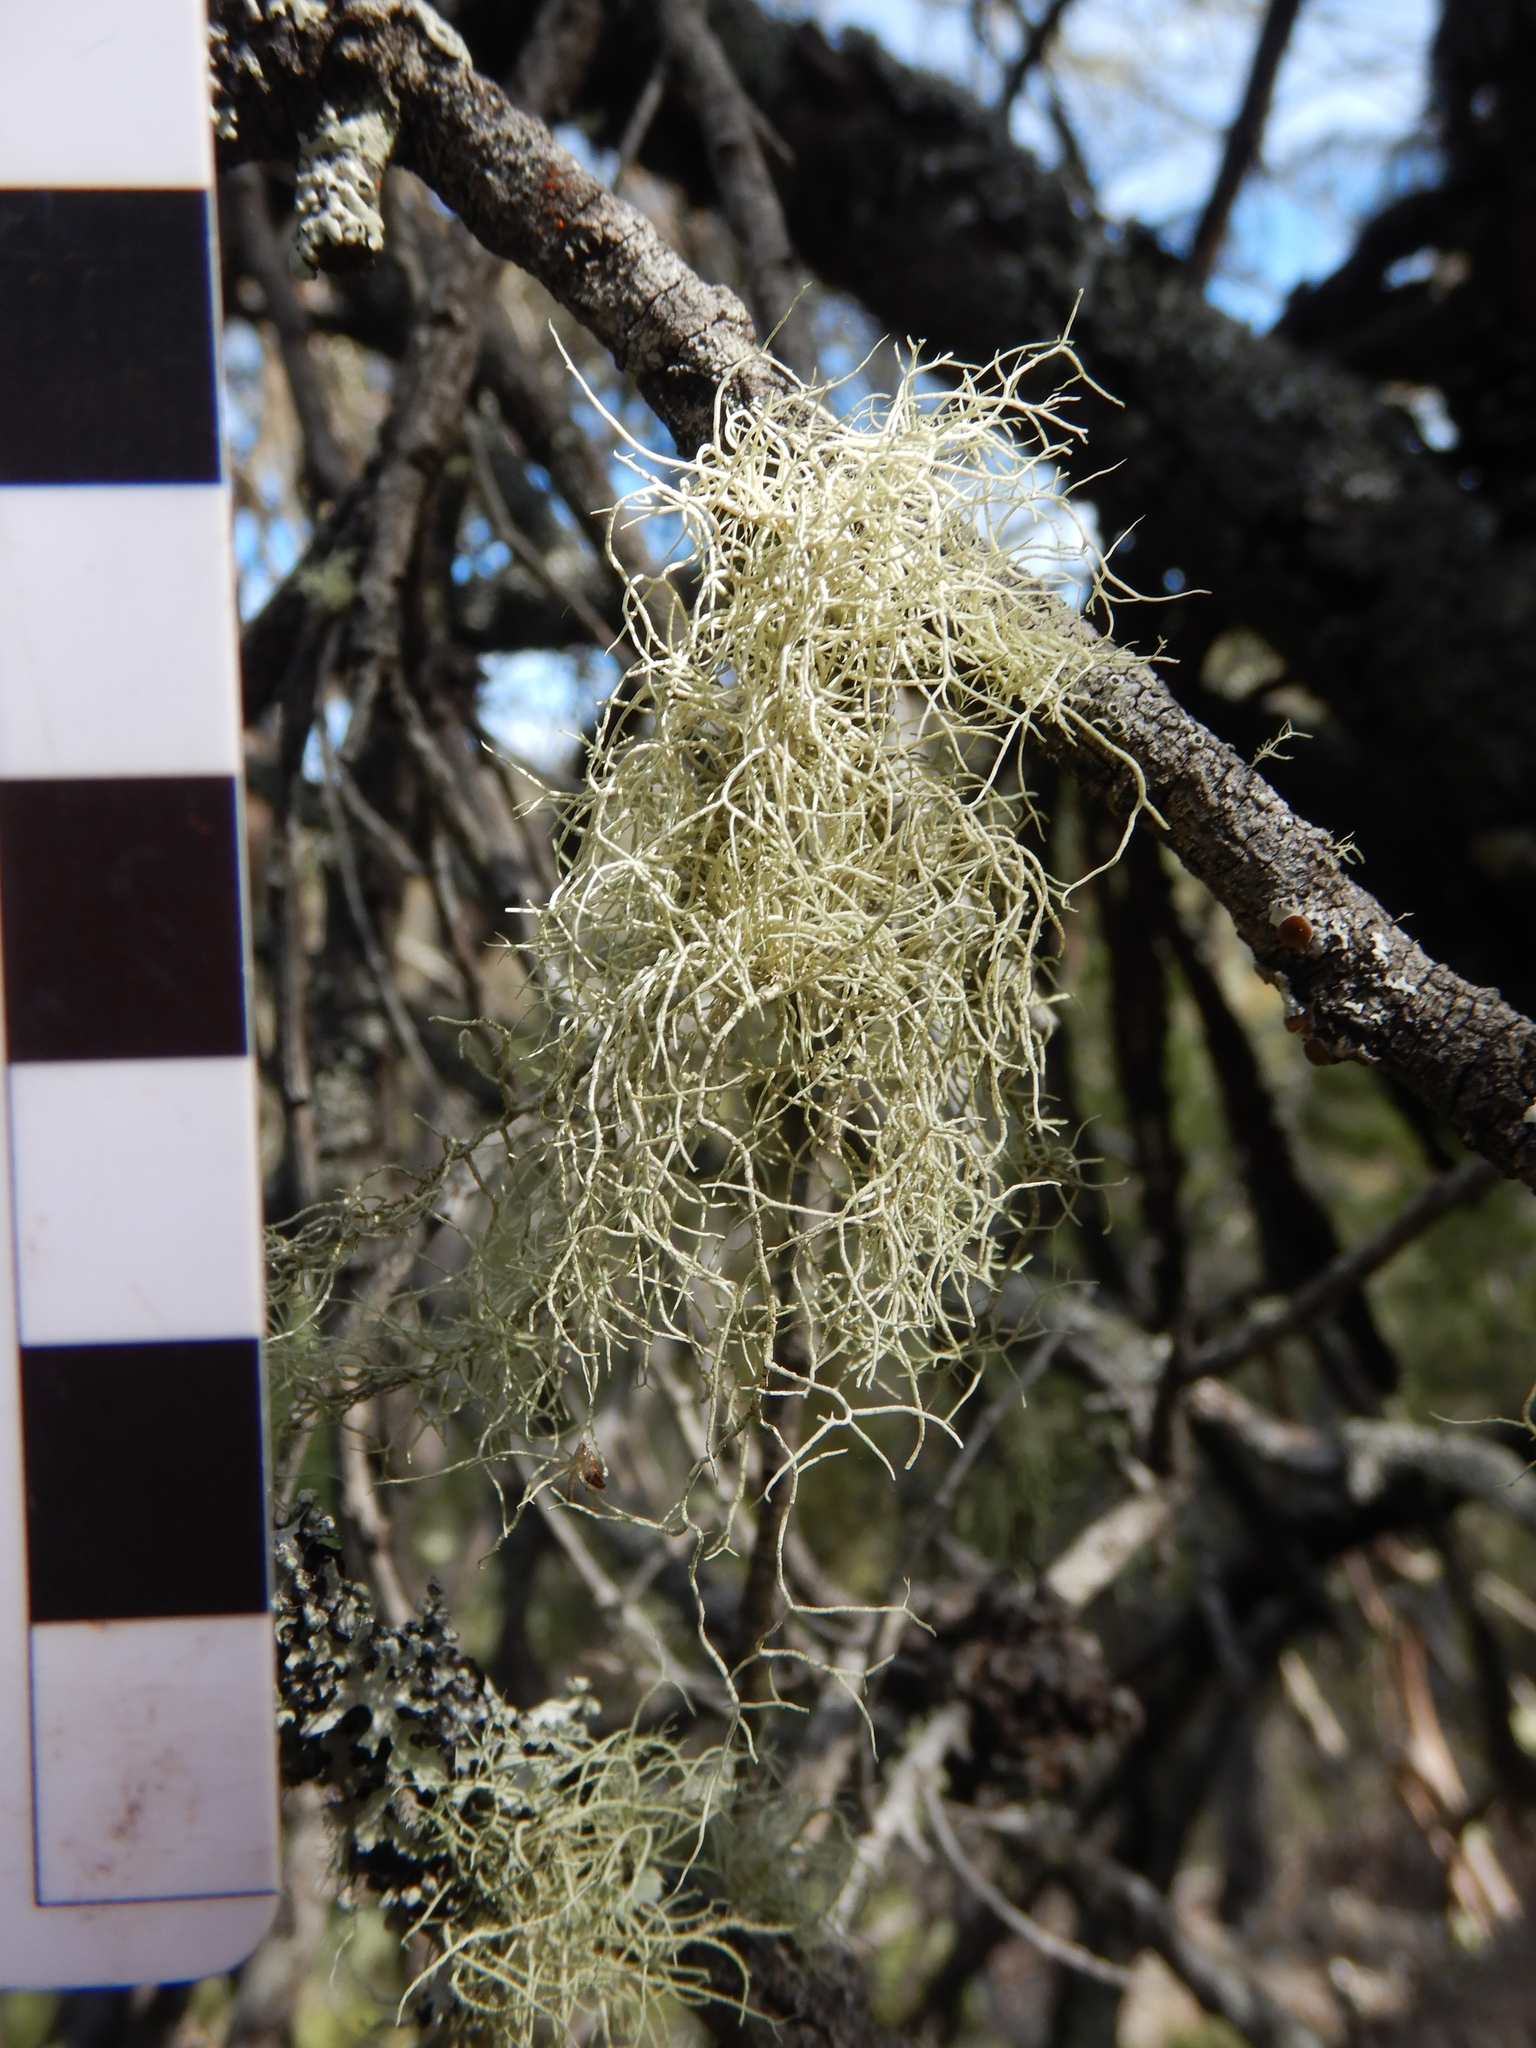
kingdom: Fungi
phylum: Ascomycota
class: Lecanoromycetes
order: Lecanorales
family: Parmeliaceae
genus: Usnea
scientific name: Usnea hirta
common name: Bristly beard lichen
